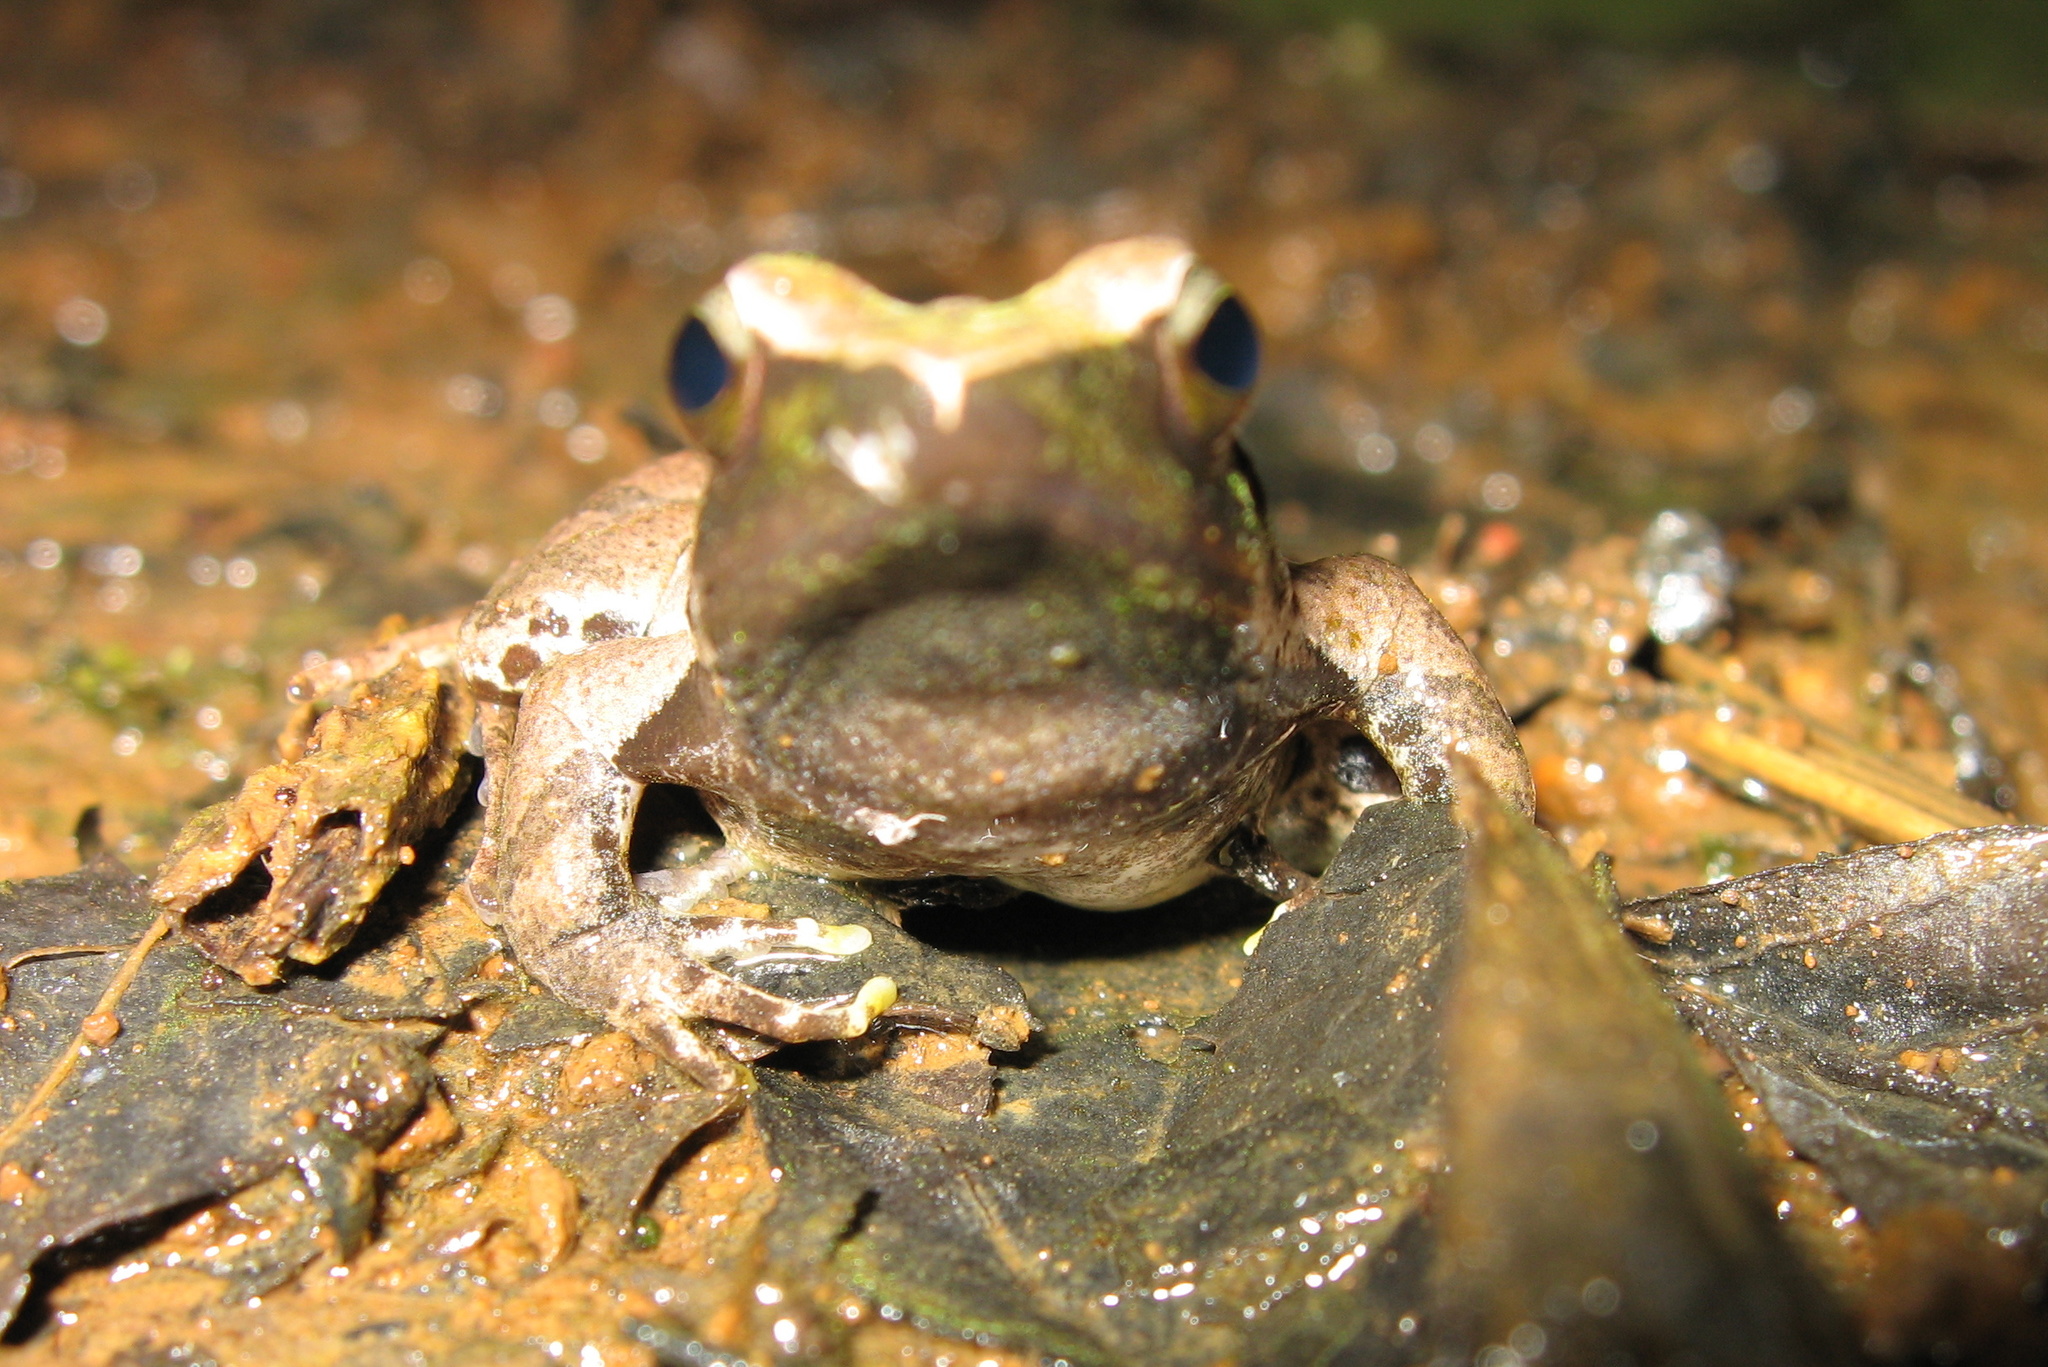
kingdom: Animalia
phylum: Chordata
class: Amphibia
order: Anura
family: Phrynobatrachidae
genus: Phrynobatrachus
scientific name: Phrynobatrachus plicatus
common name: Coast river frog
